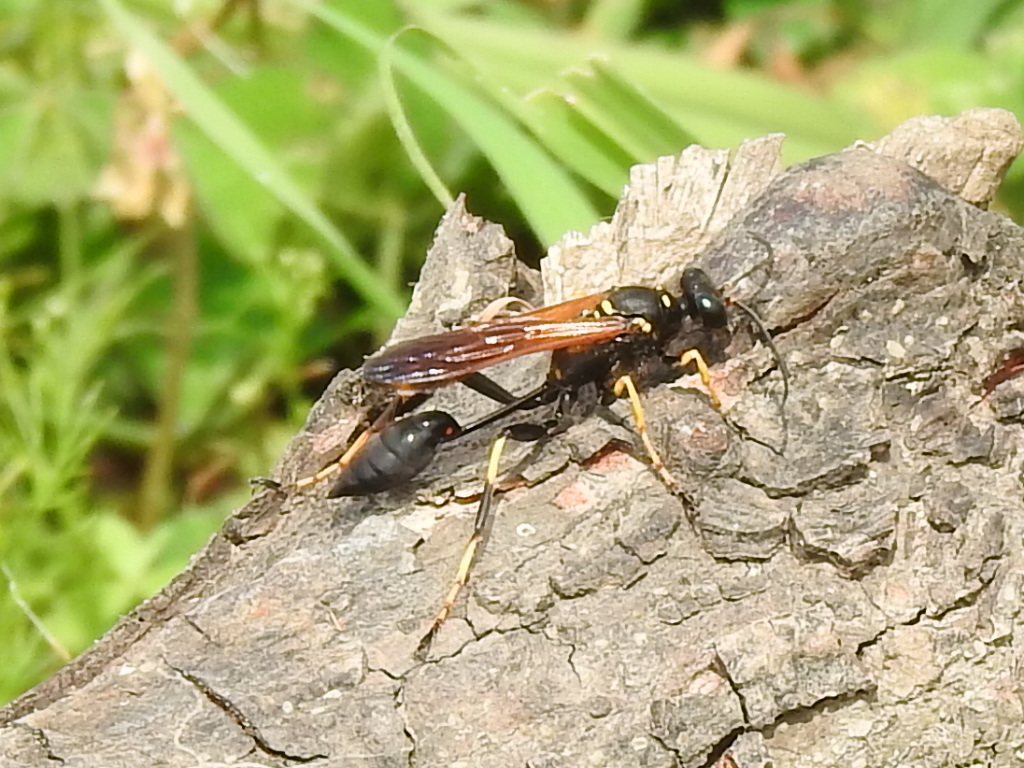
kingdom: Animalia
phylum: Arthropoda
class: Insecta
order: Hymenoptera
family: Sphecidae
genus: Sceliphron
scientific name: Sceliphron caementarium
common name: Mud dauber
